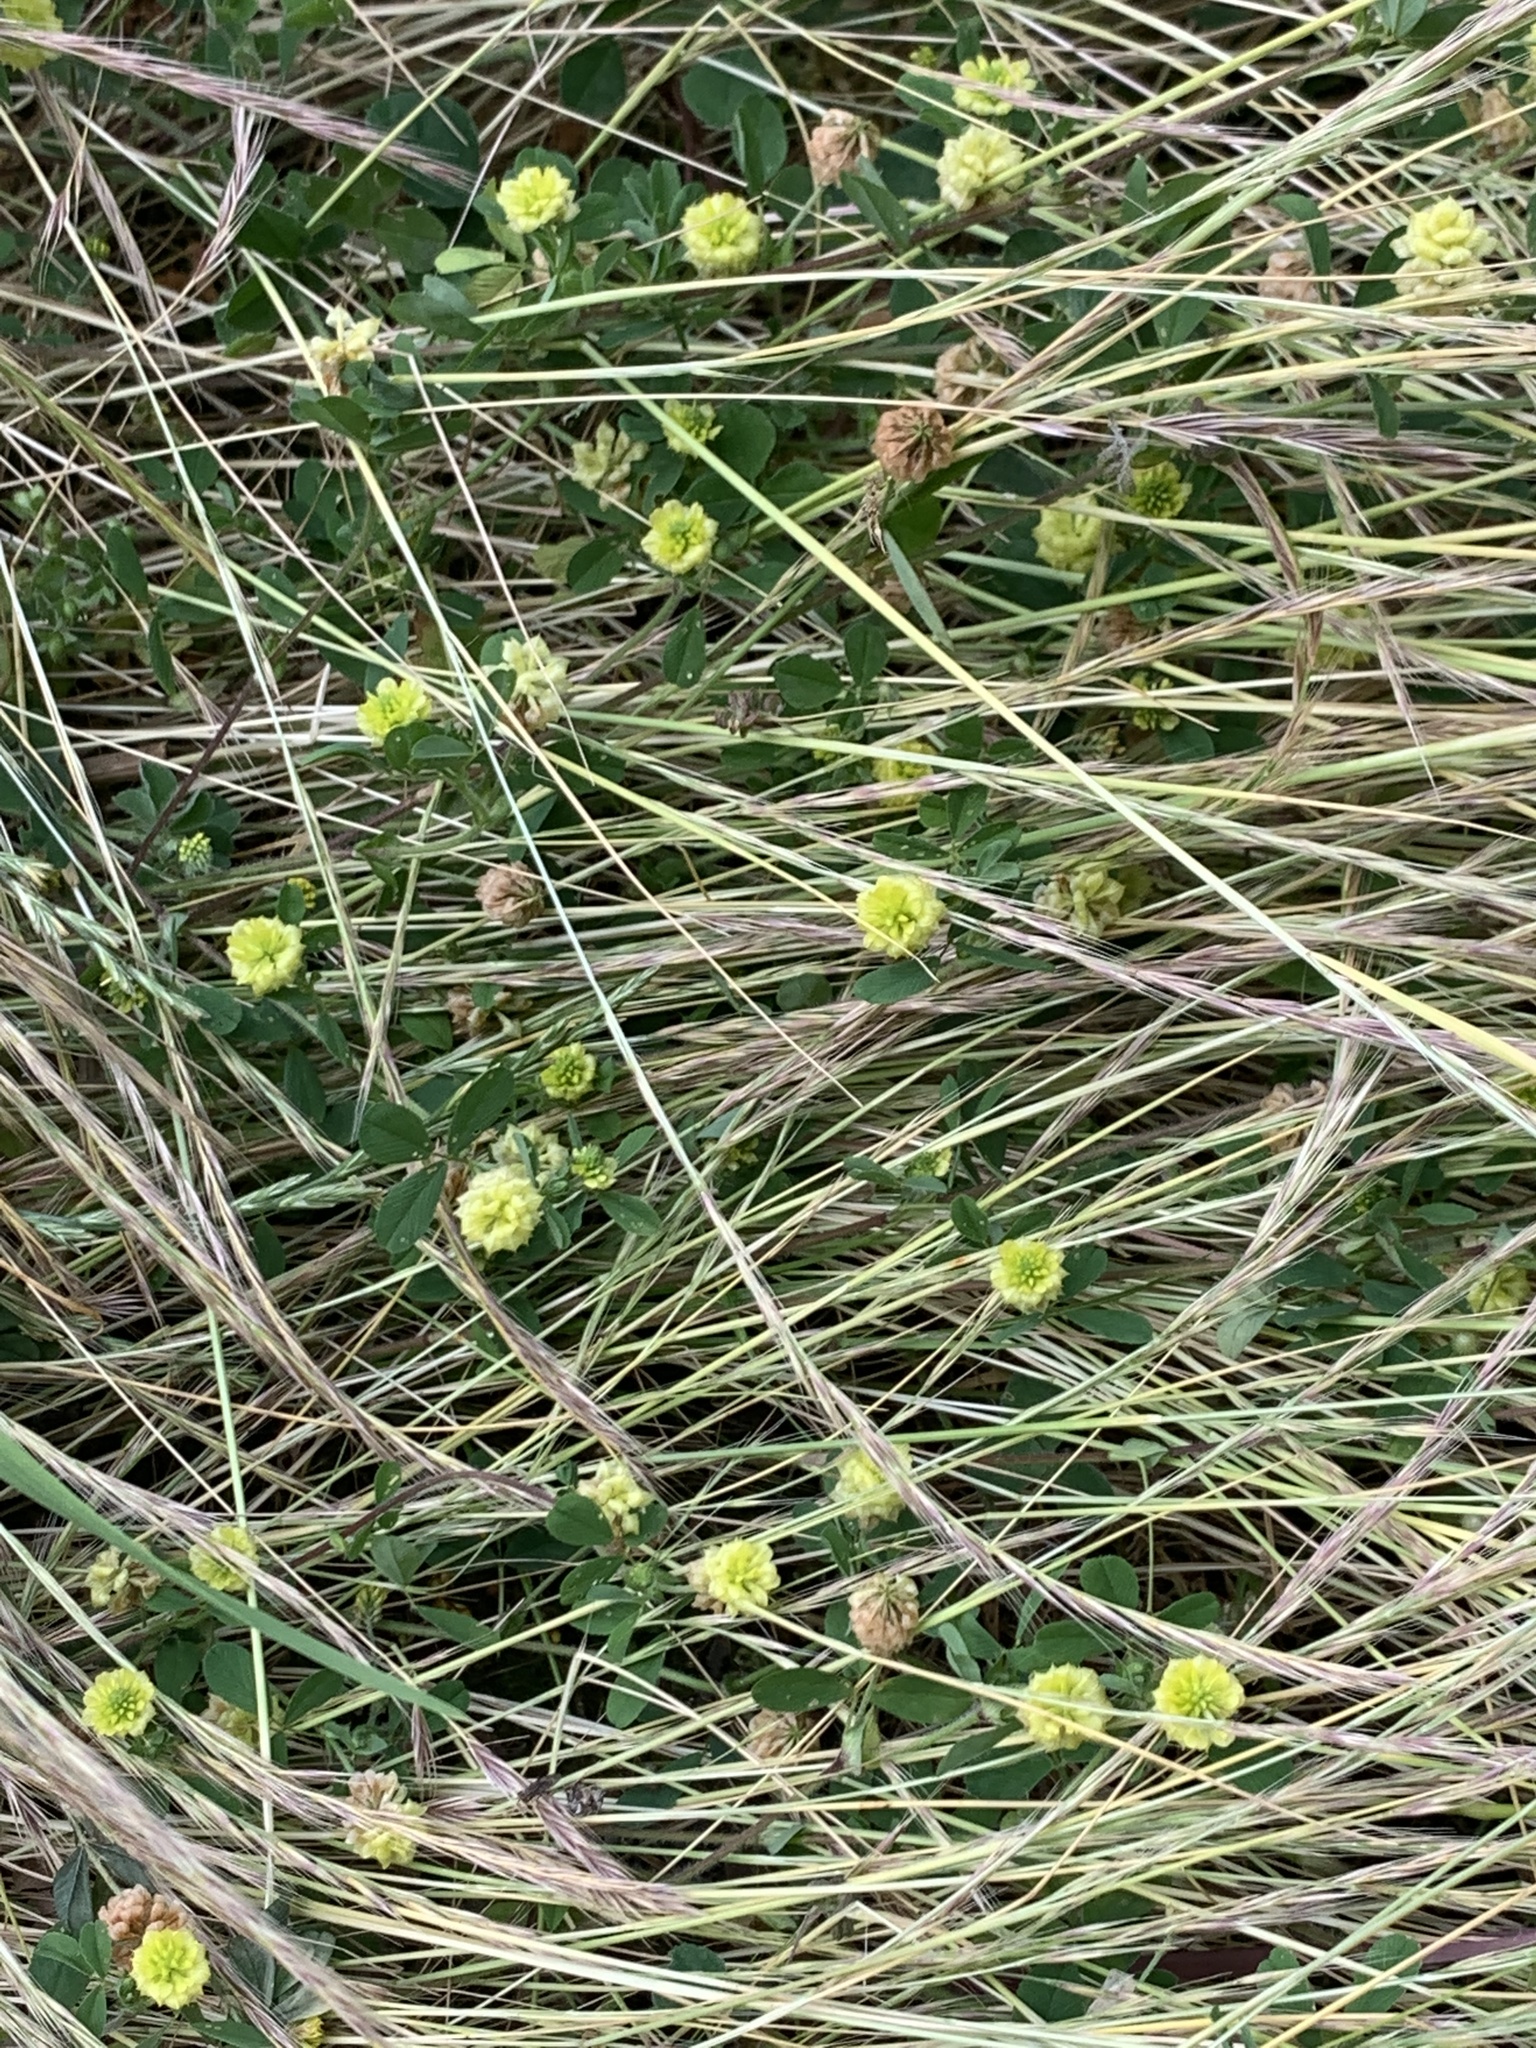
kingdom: Plantae
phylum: Tracheophyta
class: Magnoliopsida
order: Fabales
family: Fabaceae
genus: Trifolium
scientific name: Trifolium campestre
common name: Field clover
